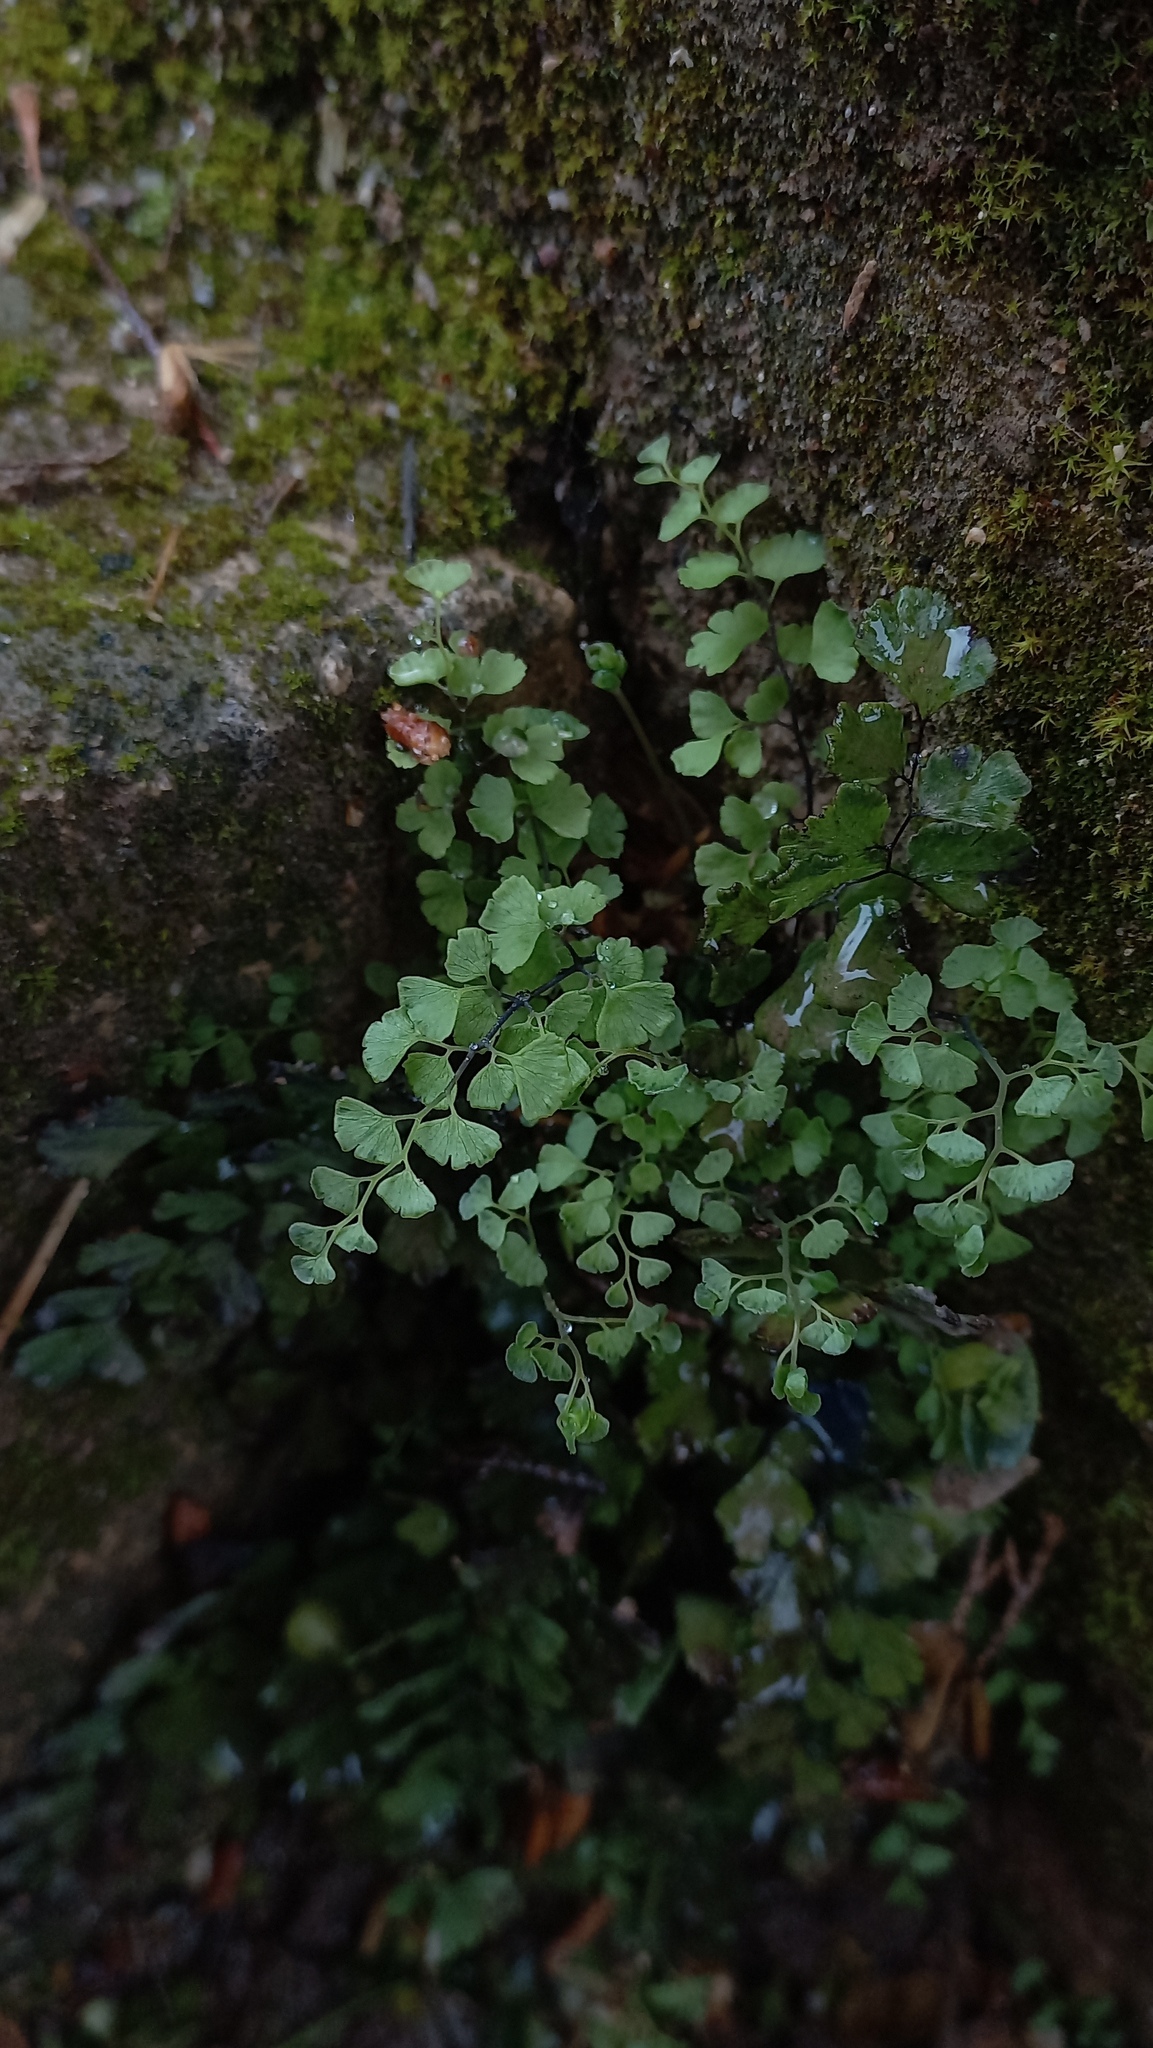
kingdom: Plantae
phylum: Tracheophyta
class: Polypodiopsida
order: Polypodiales
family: Pteridaceae
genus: Adiantum
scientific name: Adiantum capillus-veneris
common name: Maidenhair fern
